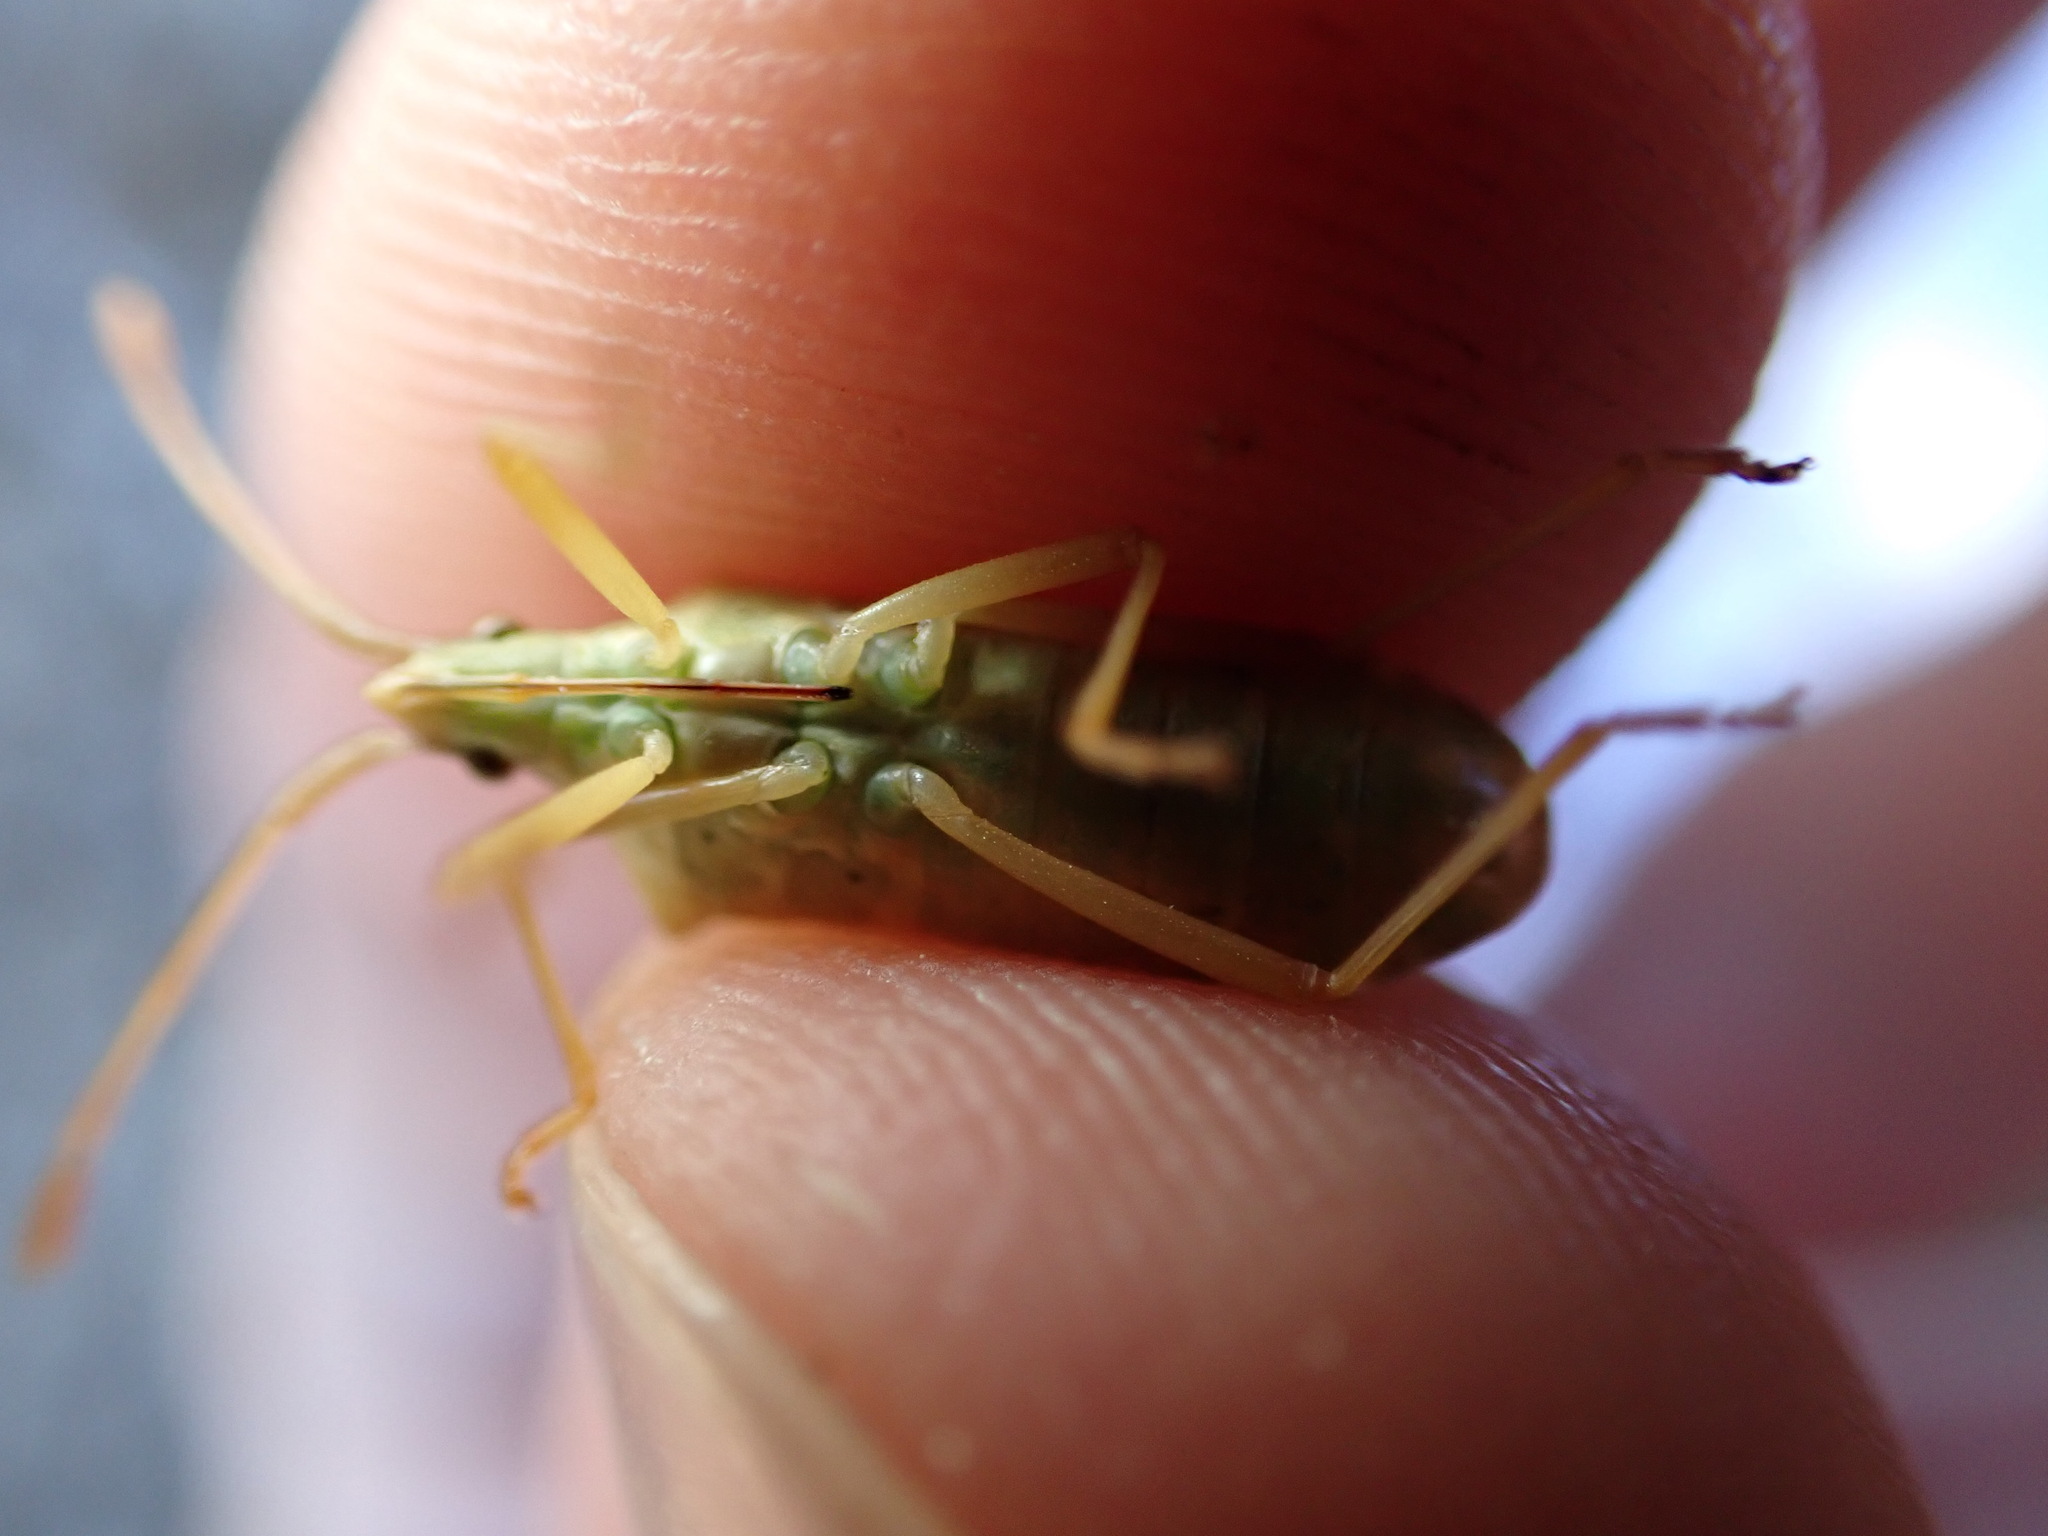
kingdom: Animalia
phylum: Arthropoda
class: Insecta
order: Hemiptera
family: Coreidae
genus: Gonocerus
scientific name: Gonocerus acuteangulatus
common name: Box bug
